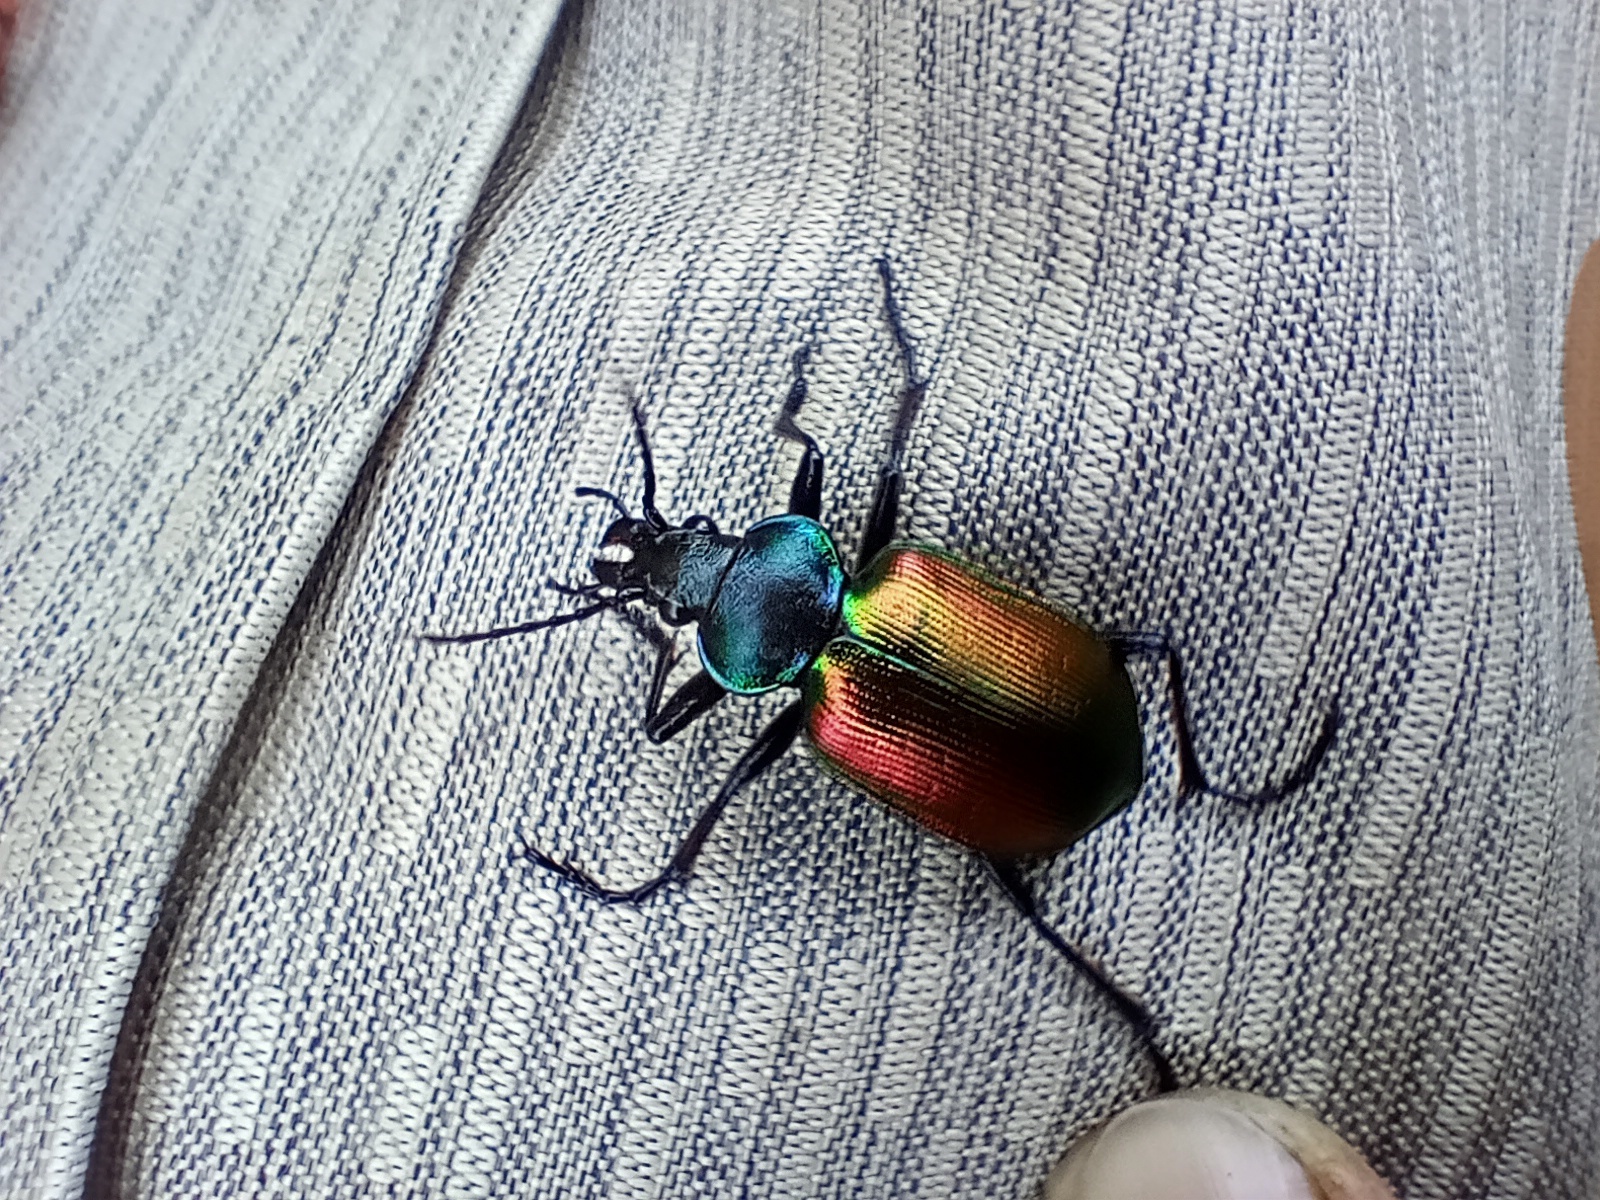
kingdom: Animalia
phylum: Arthropoda
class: Insecta
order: Coleoptera
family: Carabidae
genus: Calosoma
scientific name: Calosoma sycophanta
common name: Forest caterpillar hunter
